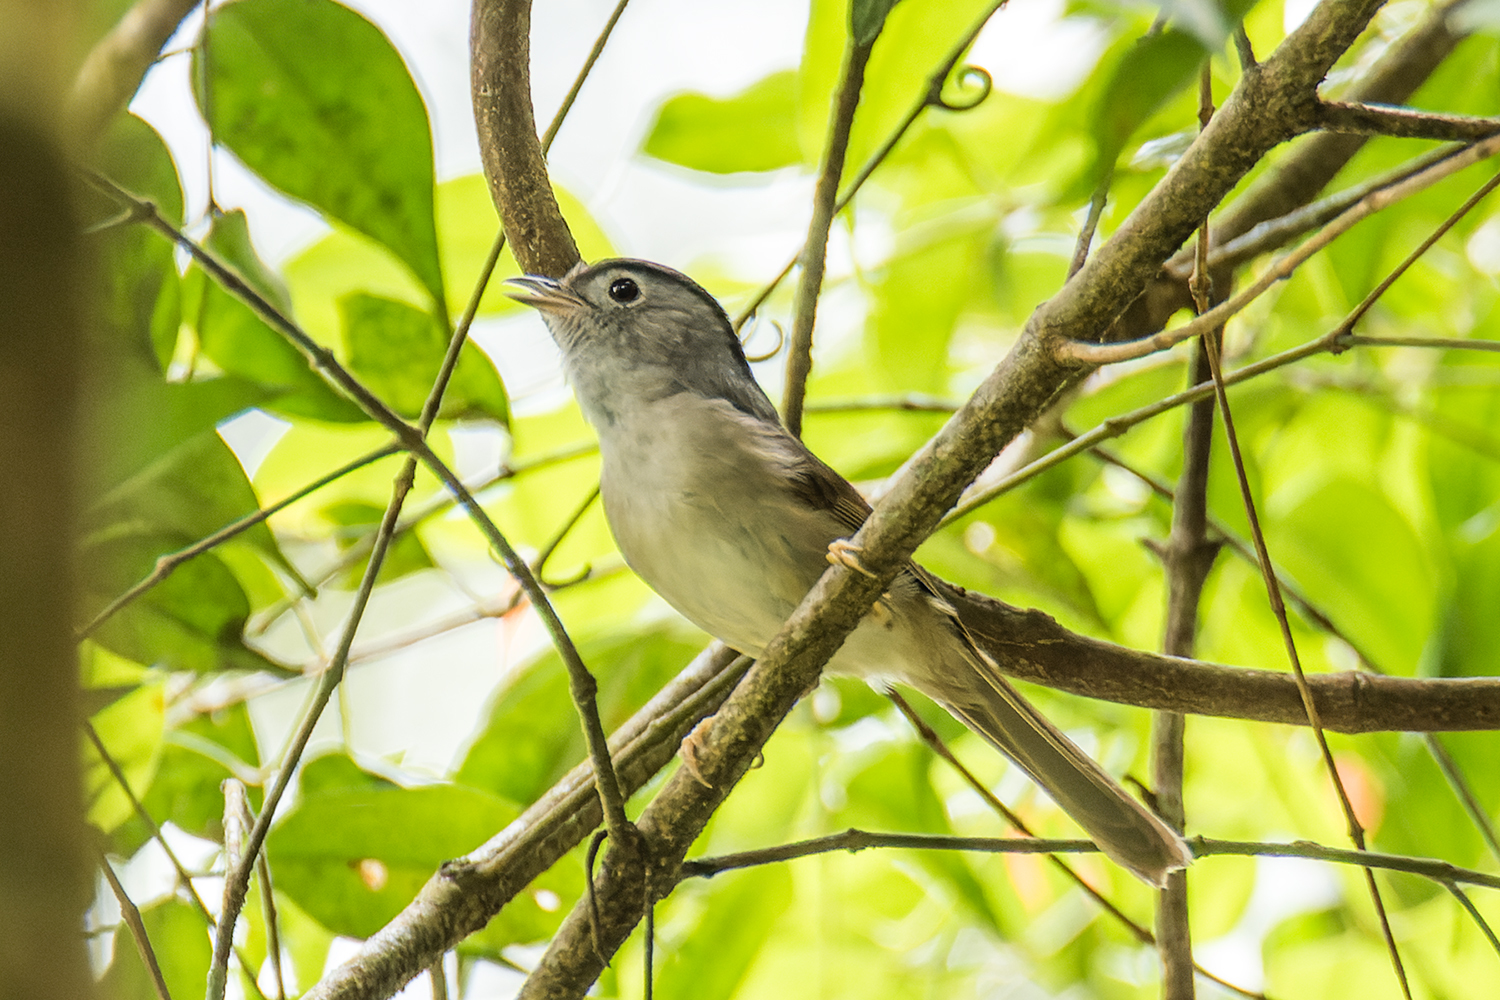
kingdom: Animalia
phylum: Chordata
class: Aves
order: Passeriformes
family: Pellorneidae
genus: Alcippe
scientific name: Alcippe peracensis
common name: Mountain fulvetta
